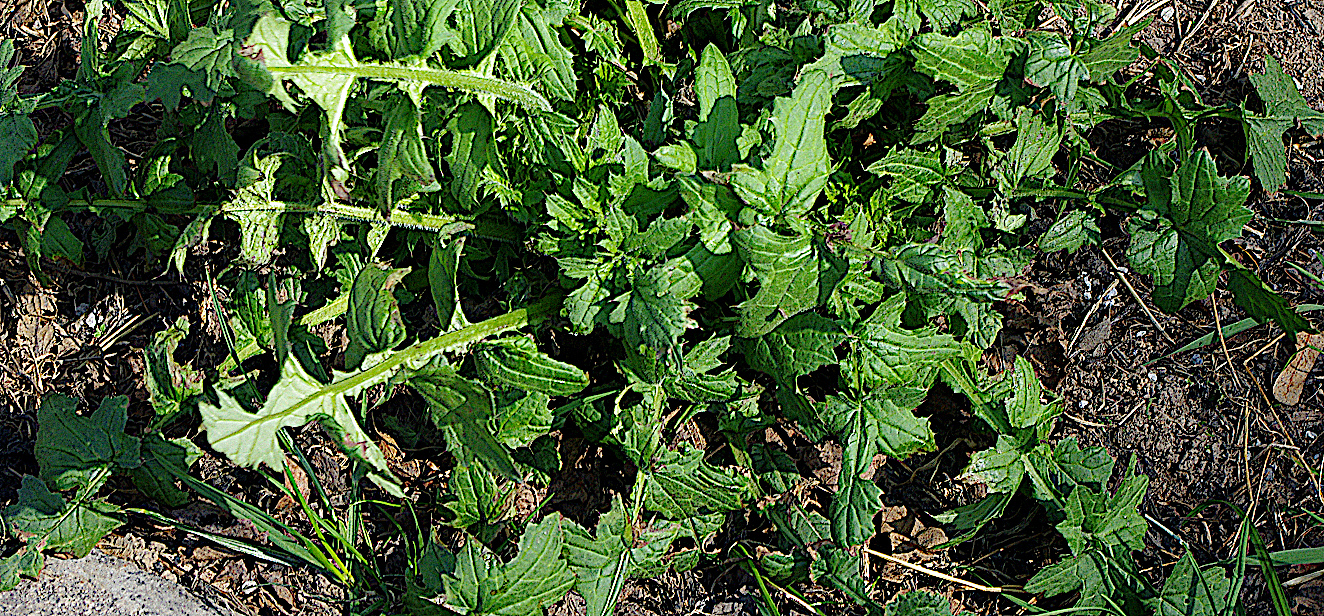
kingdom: Plantae
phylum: Tracheophyta
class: Magnoliopsida
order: Asterales
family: Asteraceae
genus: Carduus
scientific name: Carduus crispus
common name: Welted thistle
